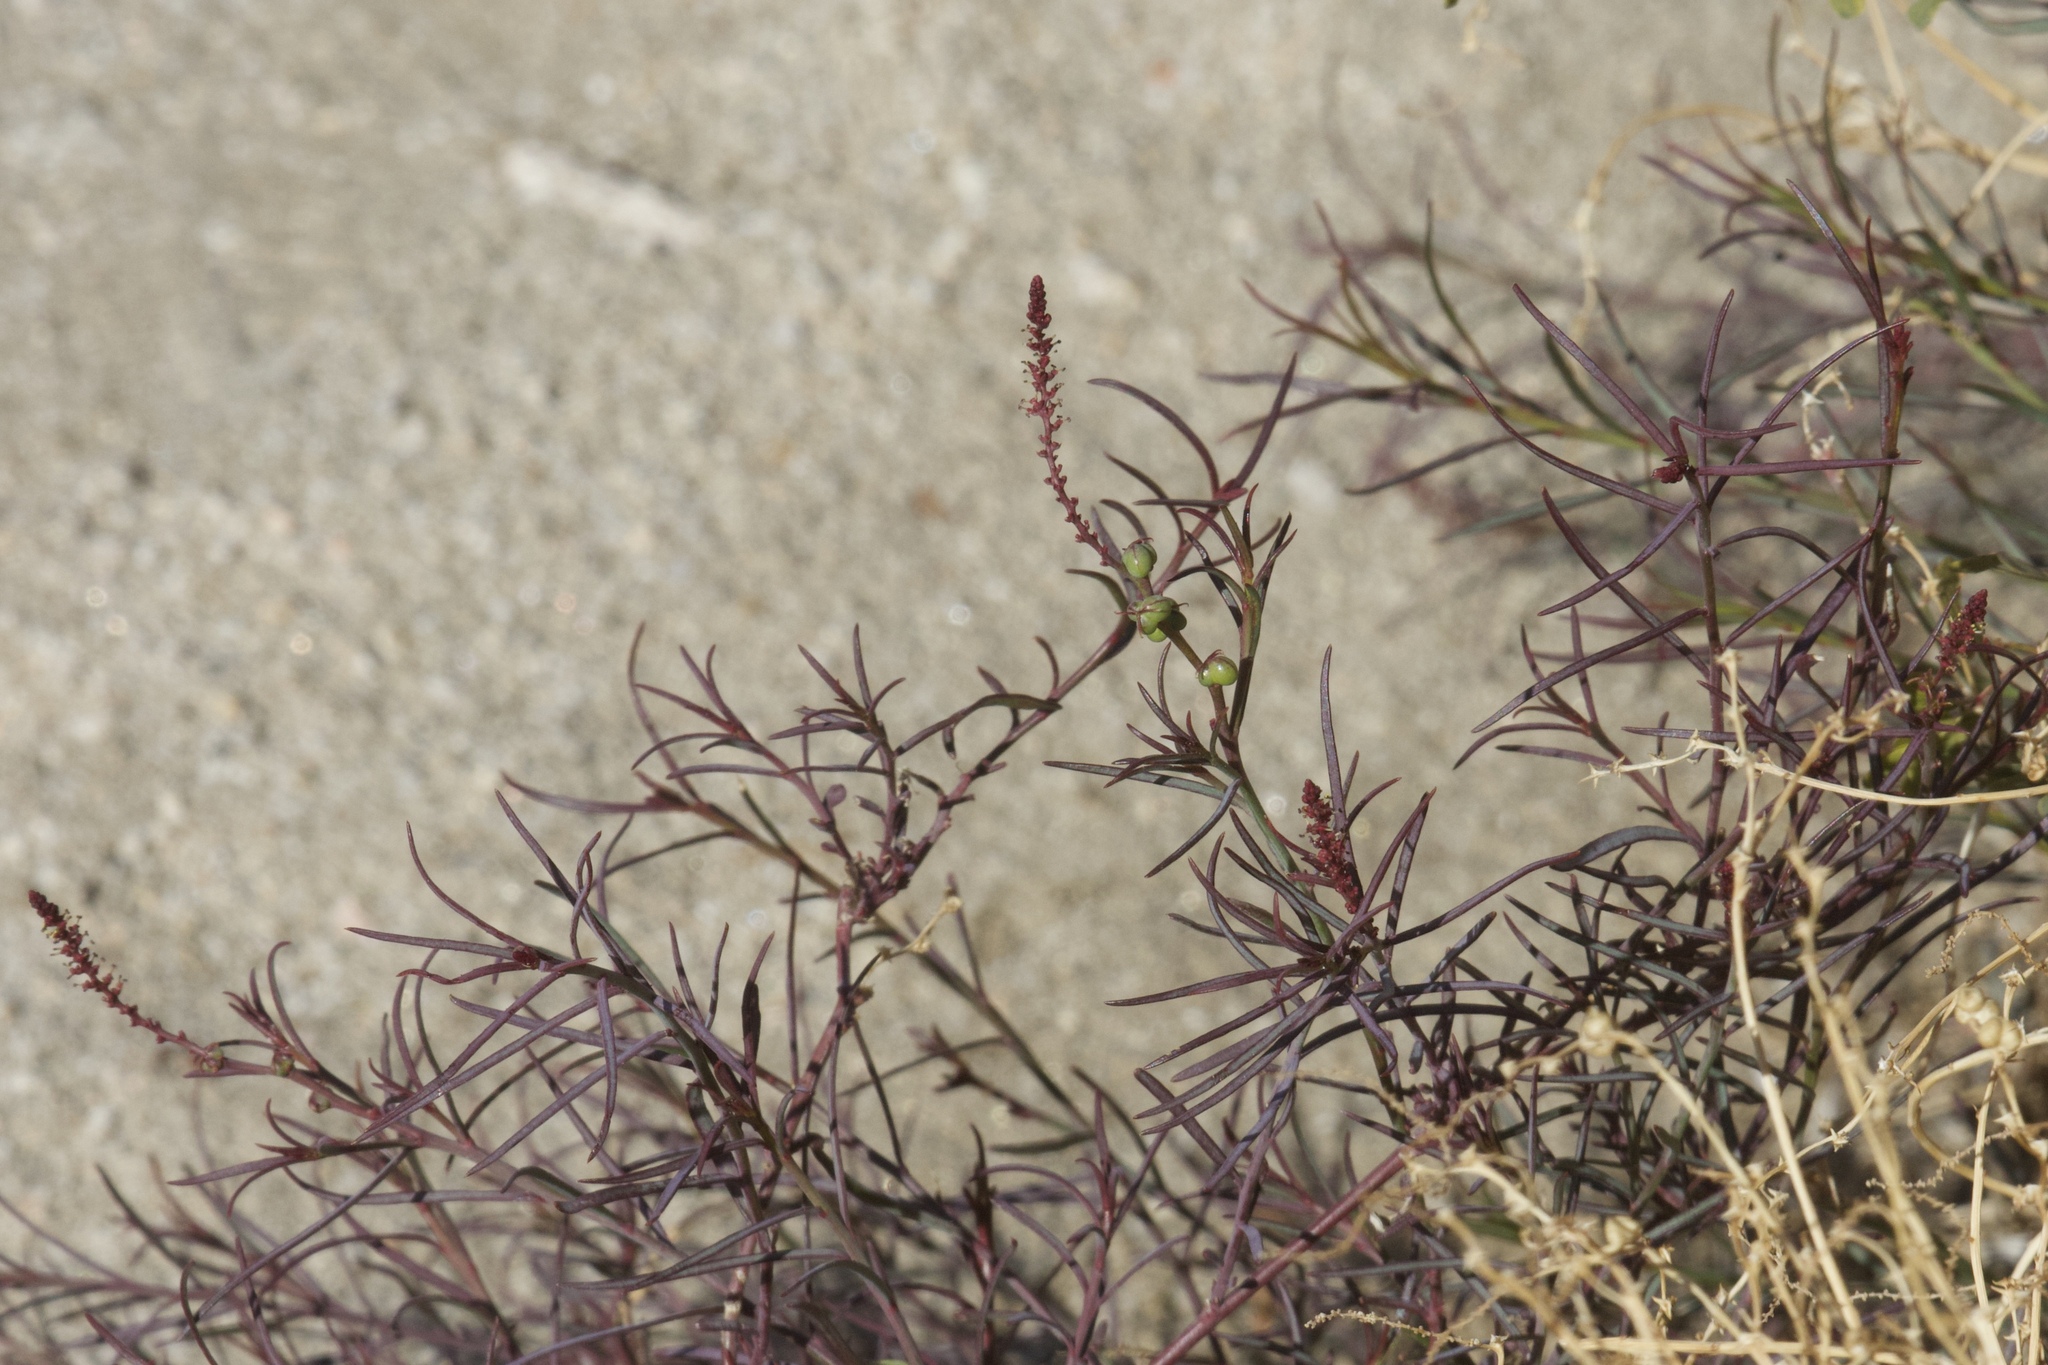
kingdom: Plantae
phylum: Tracheophyta
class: Magnoliopsida
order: Malpighiales
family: Euphorbiaceae
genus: Stillingia
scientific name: Stillingia linearifolia
